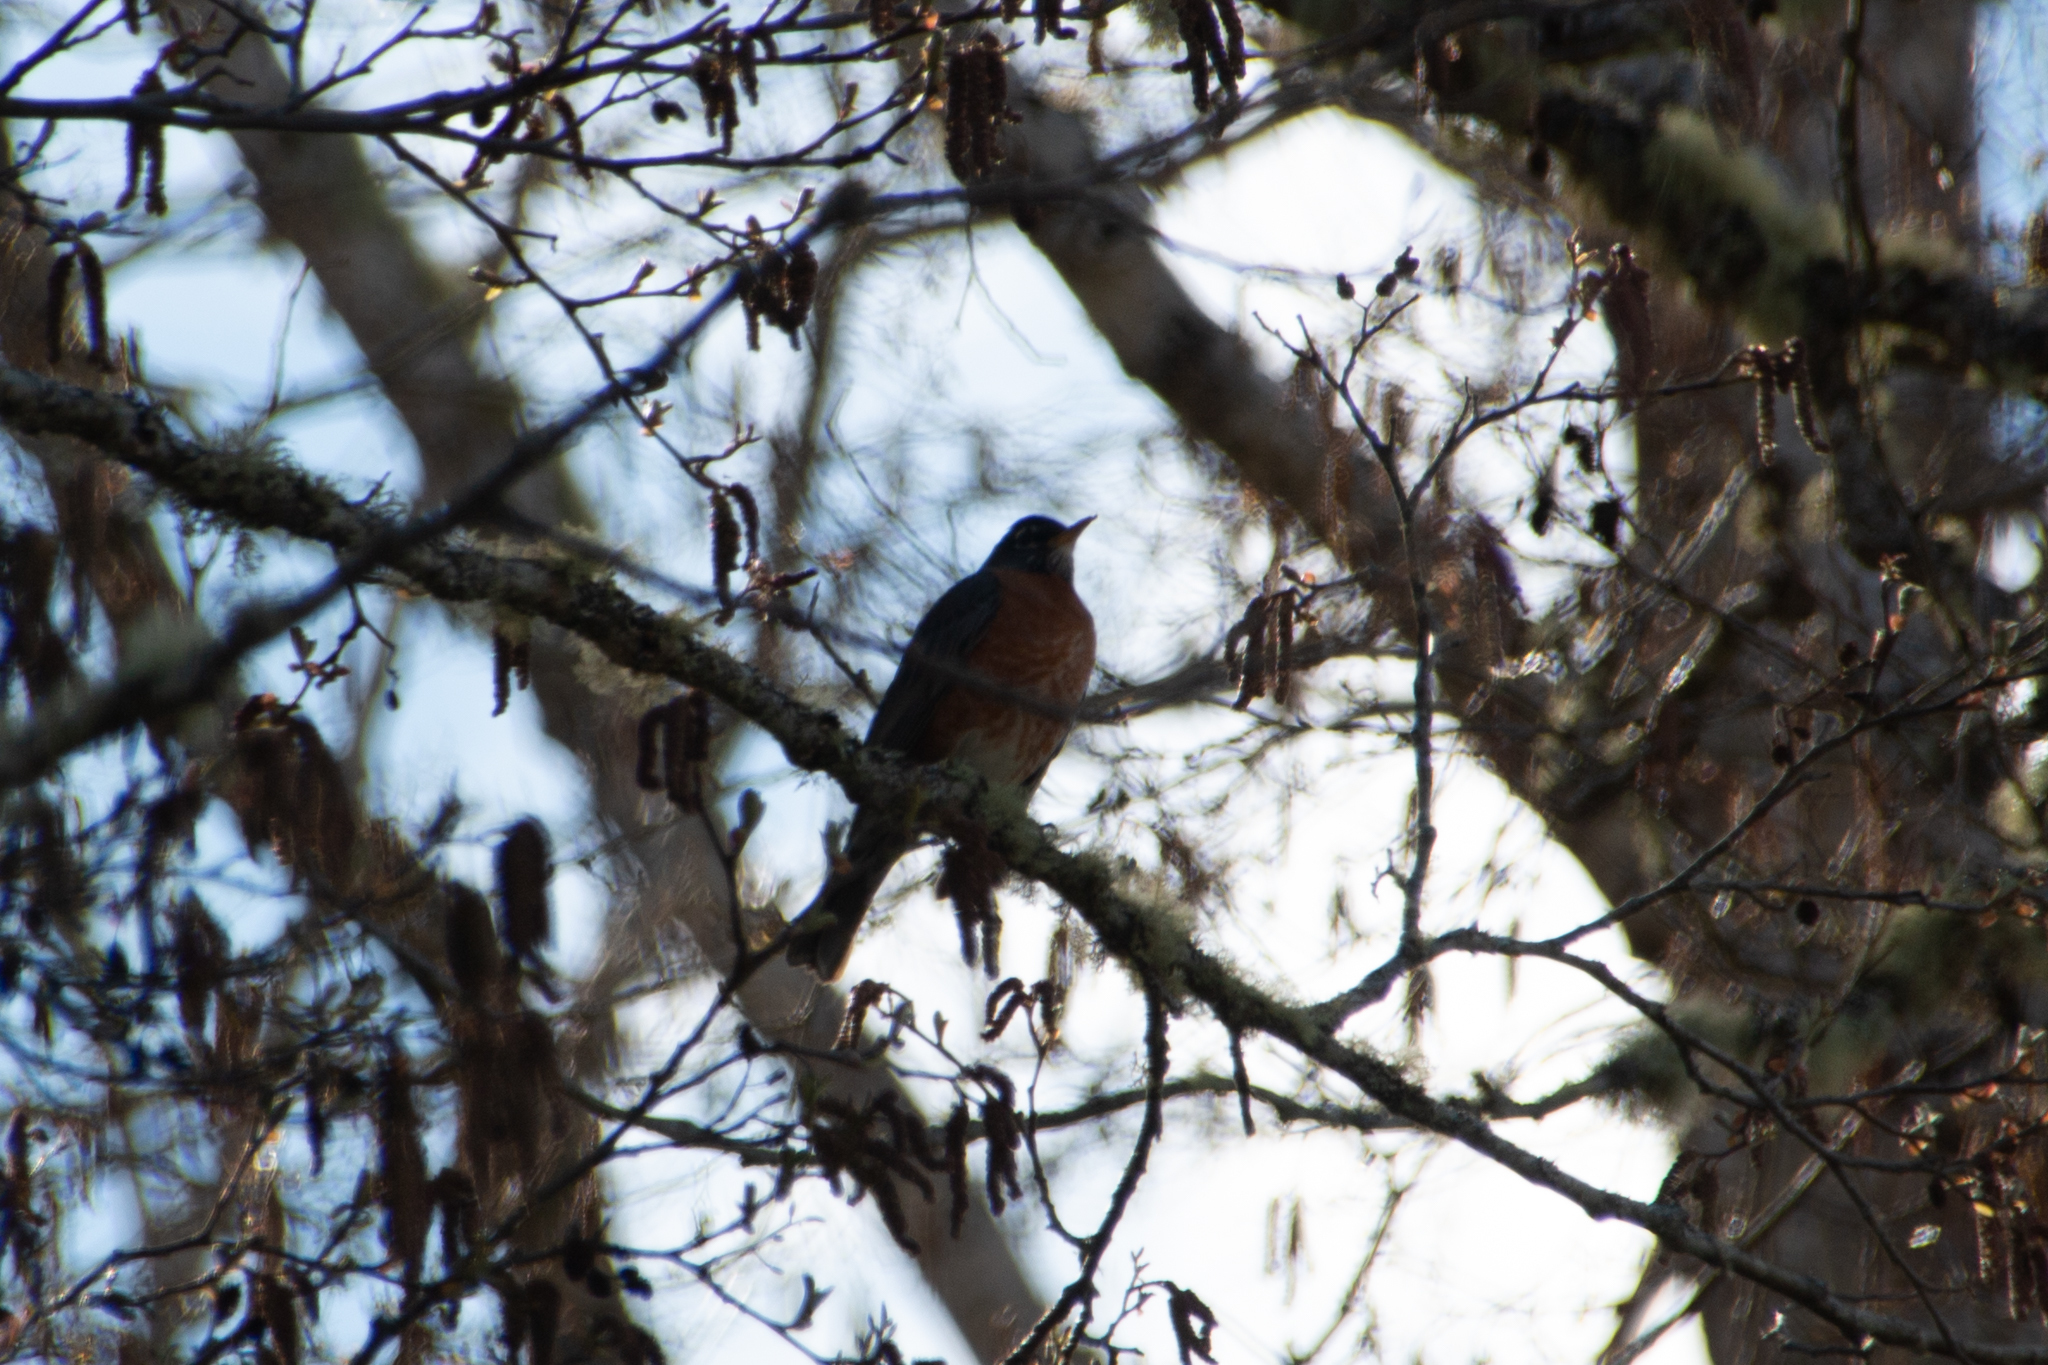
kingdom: Animalia
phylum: Chordata
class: Aves
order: Passeriformes
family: Turdidae
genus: Turdus
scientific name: Turdus migratorius
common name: American robin
